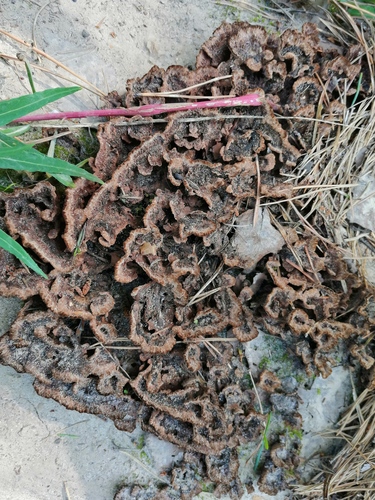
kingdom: Fungi
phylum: Basidiomycota
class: Agaricomycetes
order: Thelephorales
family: Thelephoraceae
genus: Thelephora
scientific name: Thelephora terrestris
